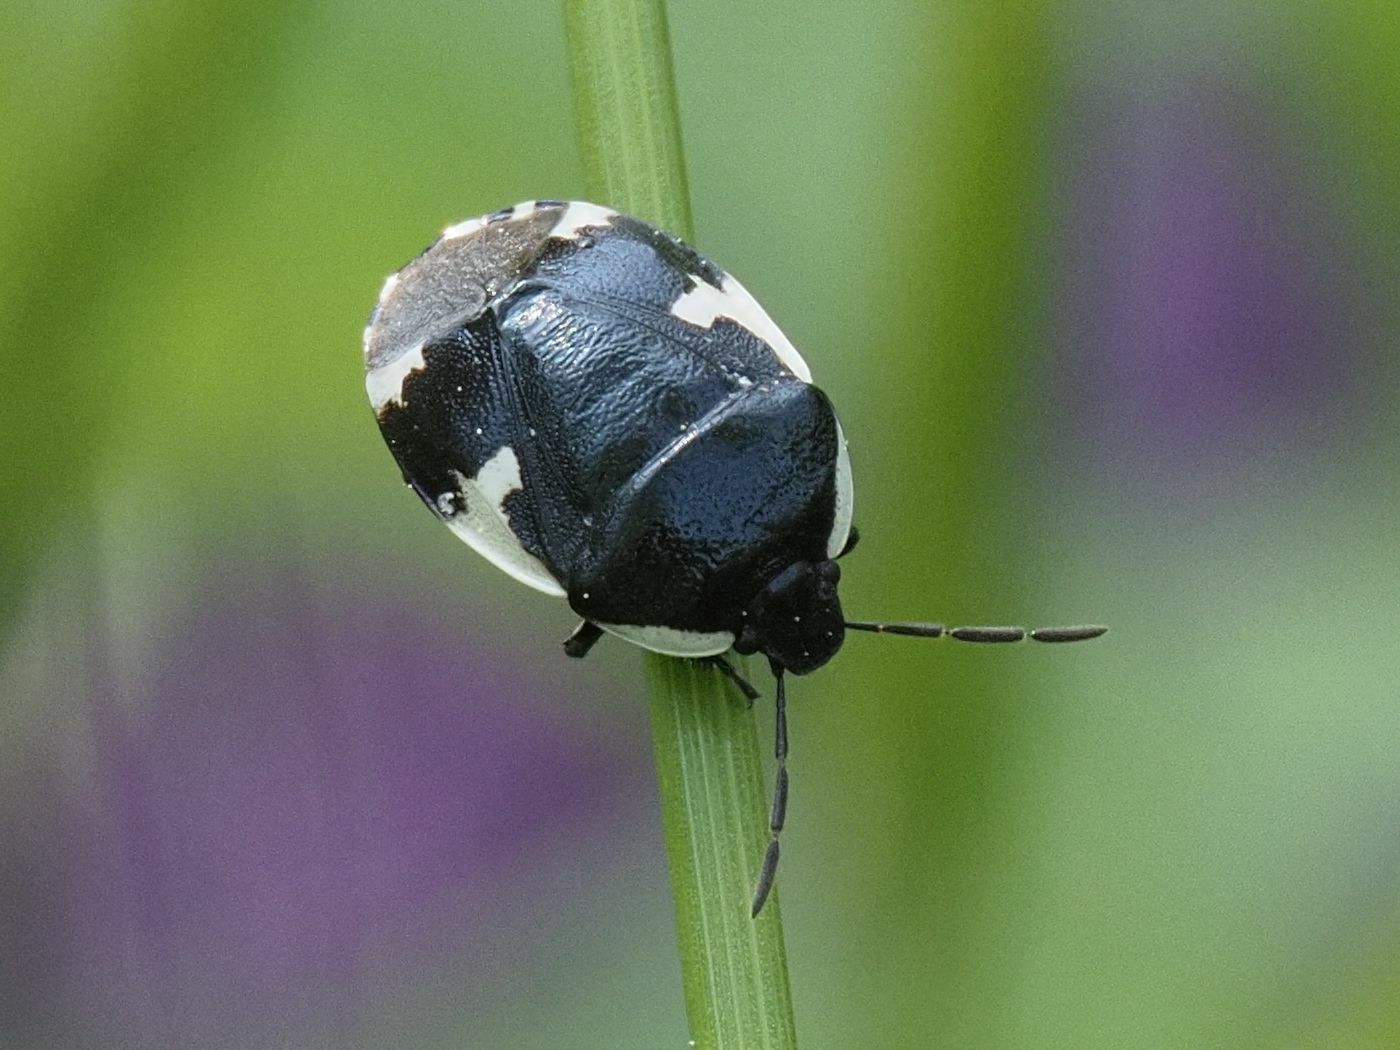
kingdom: Animalia
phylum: Arthropoda
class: Insecta
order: Hemiptera
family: Cydnidae
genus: Tritomegas
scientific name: Tritomegas sexmaculatus
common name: Rambur's pied shieldbug
